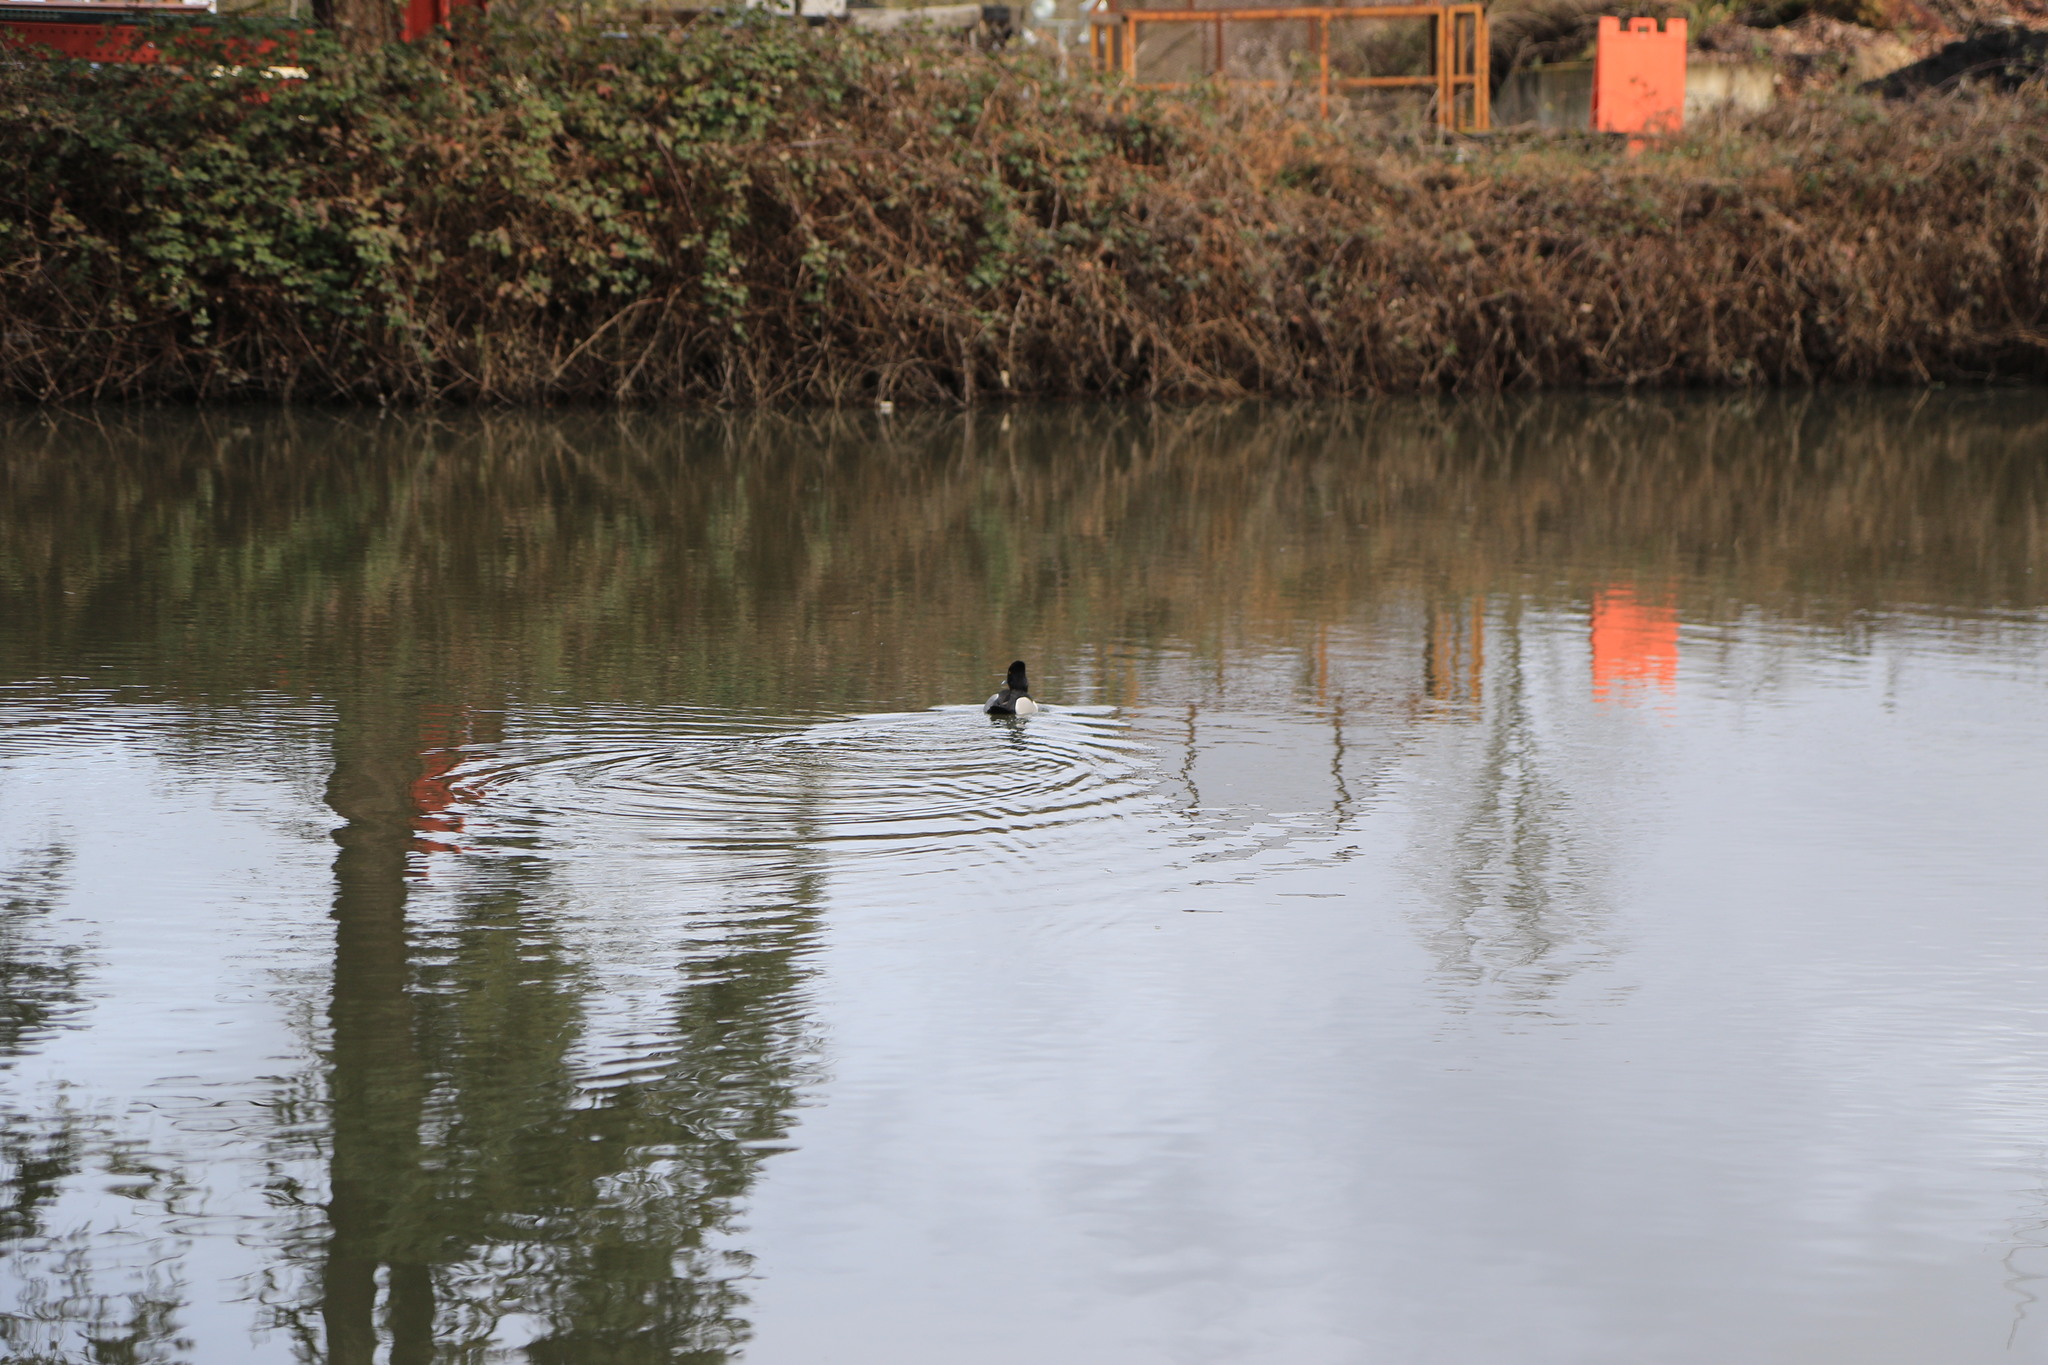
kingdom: Animalia
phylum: Chordata
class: Aves
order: Anseriformes
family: Anatidae
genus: Aythya
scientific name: Aythya collaris
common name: Ring-necked duck
